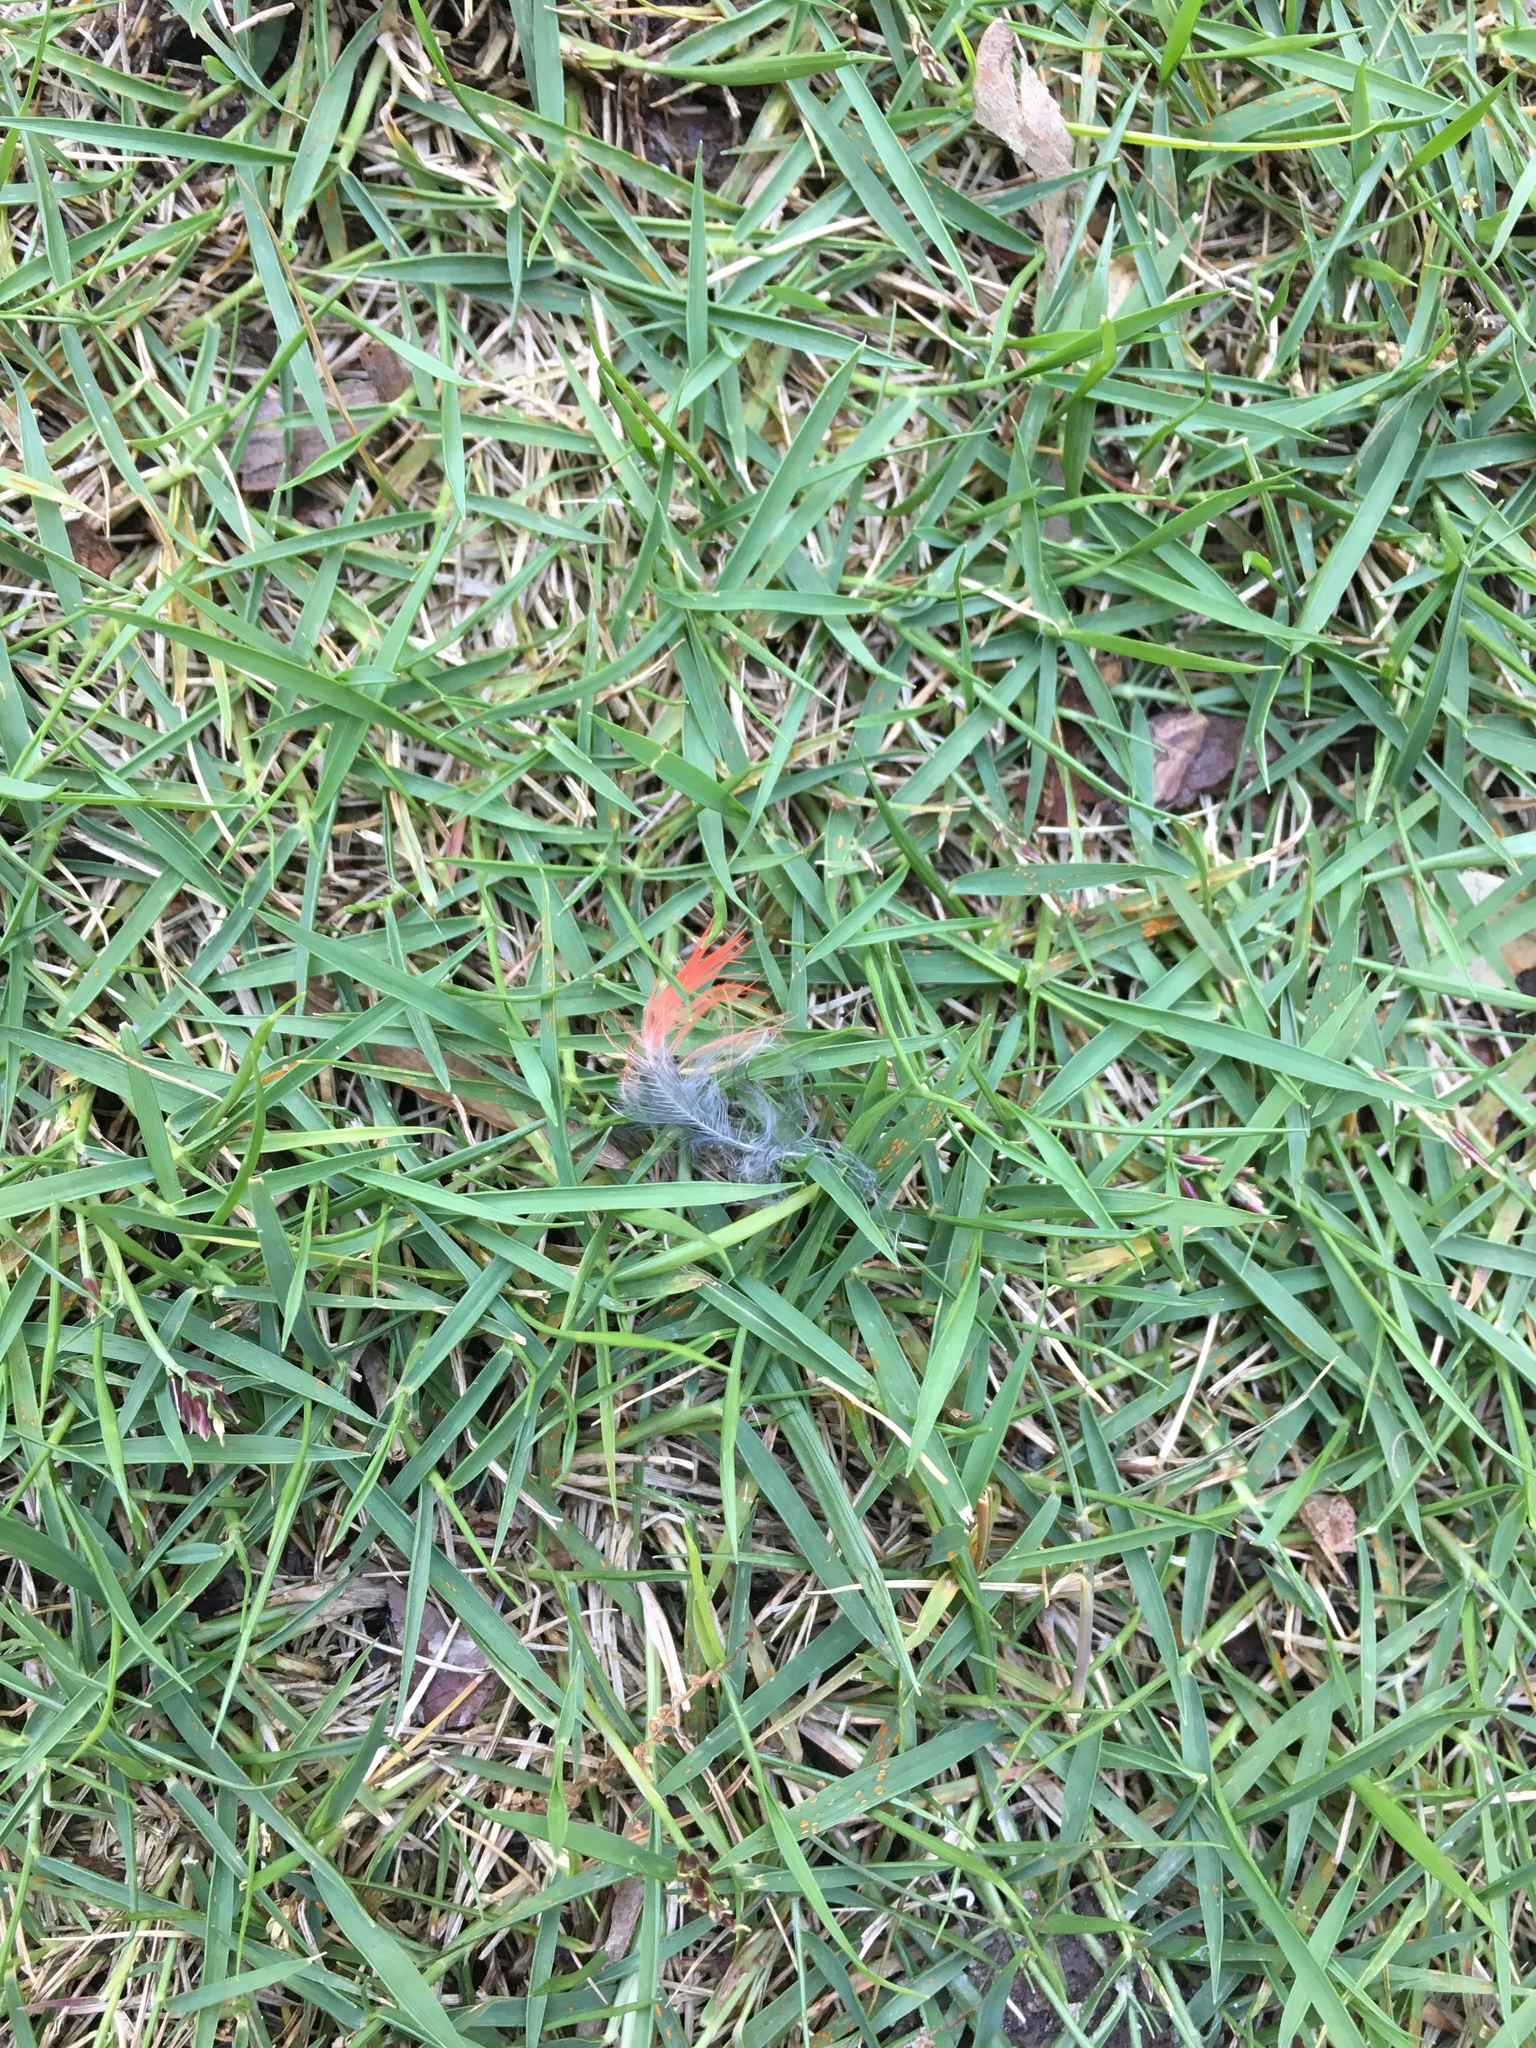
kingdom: Animalia
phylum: Chordata
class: Aves
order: Passeriformes
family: Cardinalidae
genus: Cardinalis
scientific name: Cardinalis cardinalis
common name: Northern cardinal
